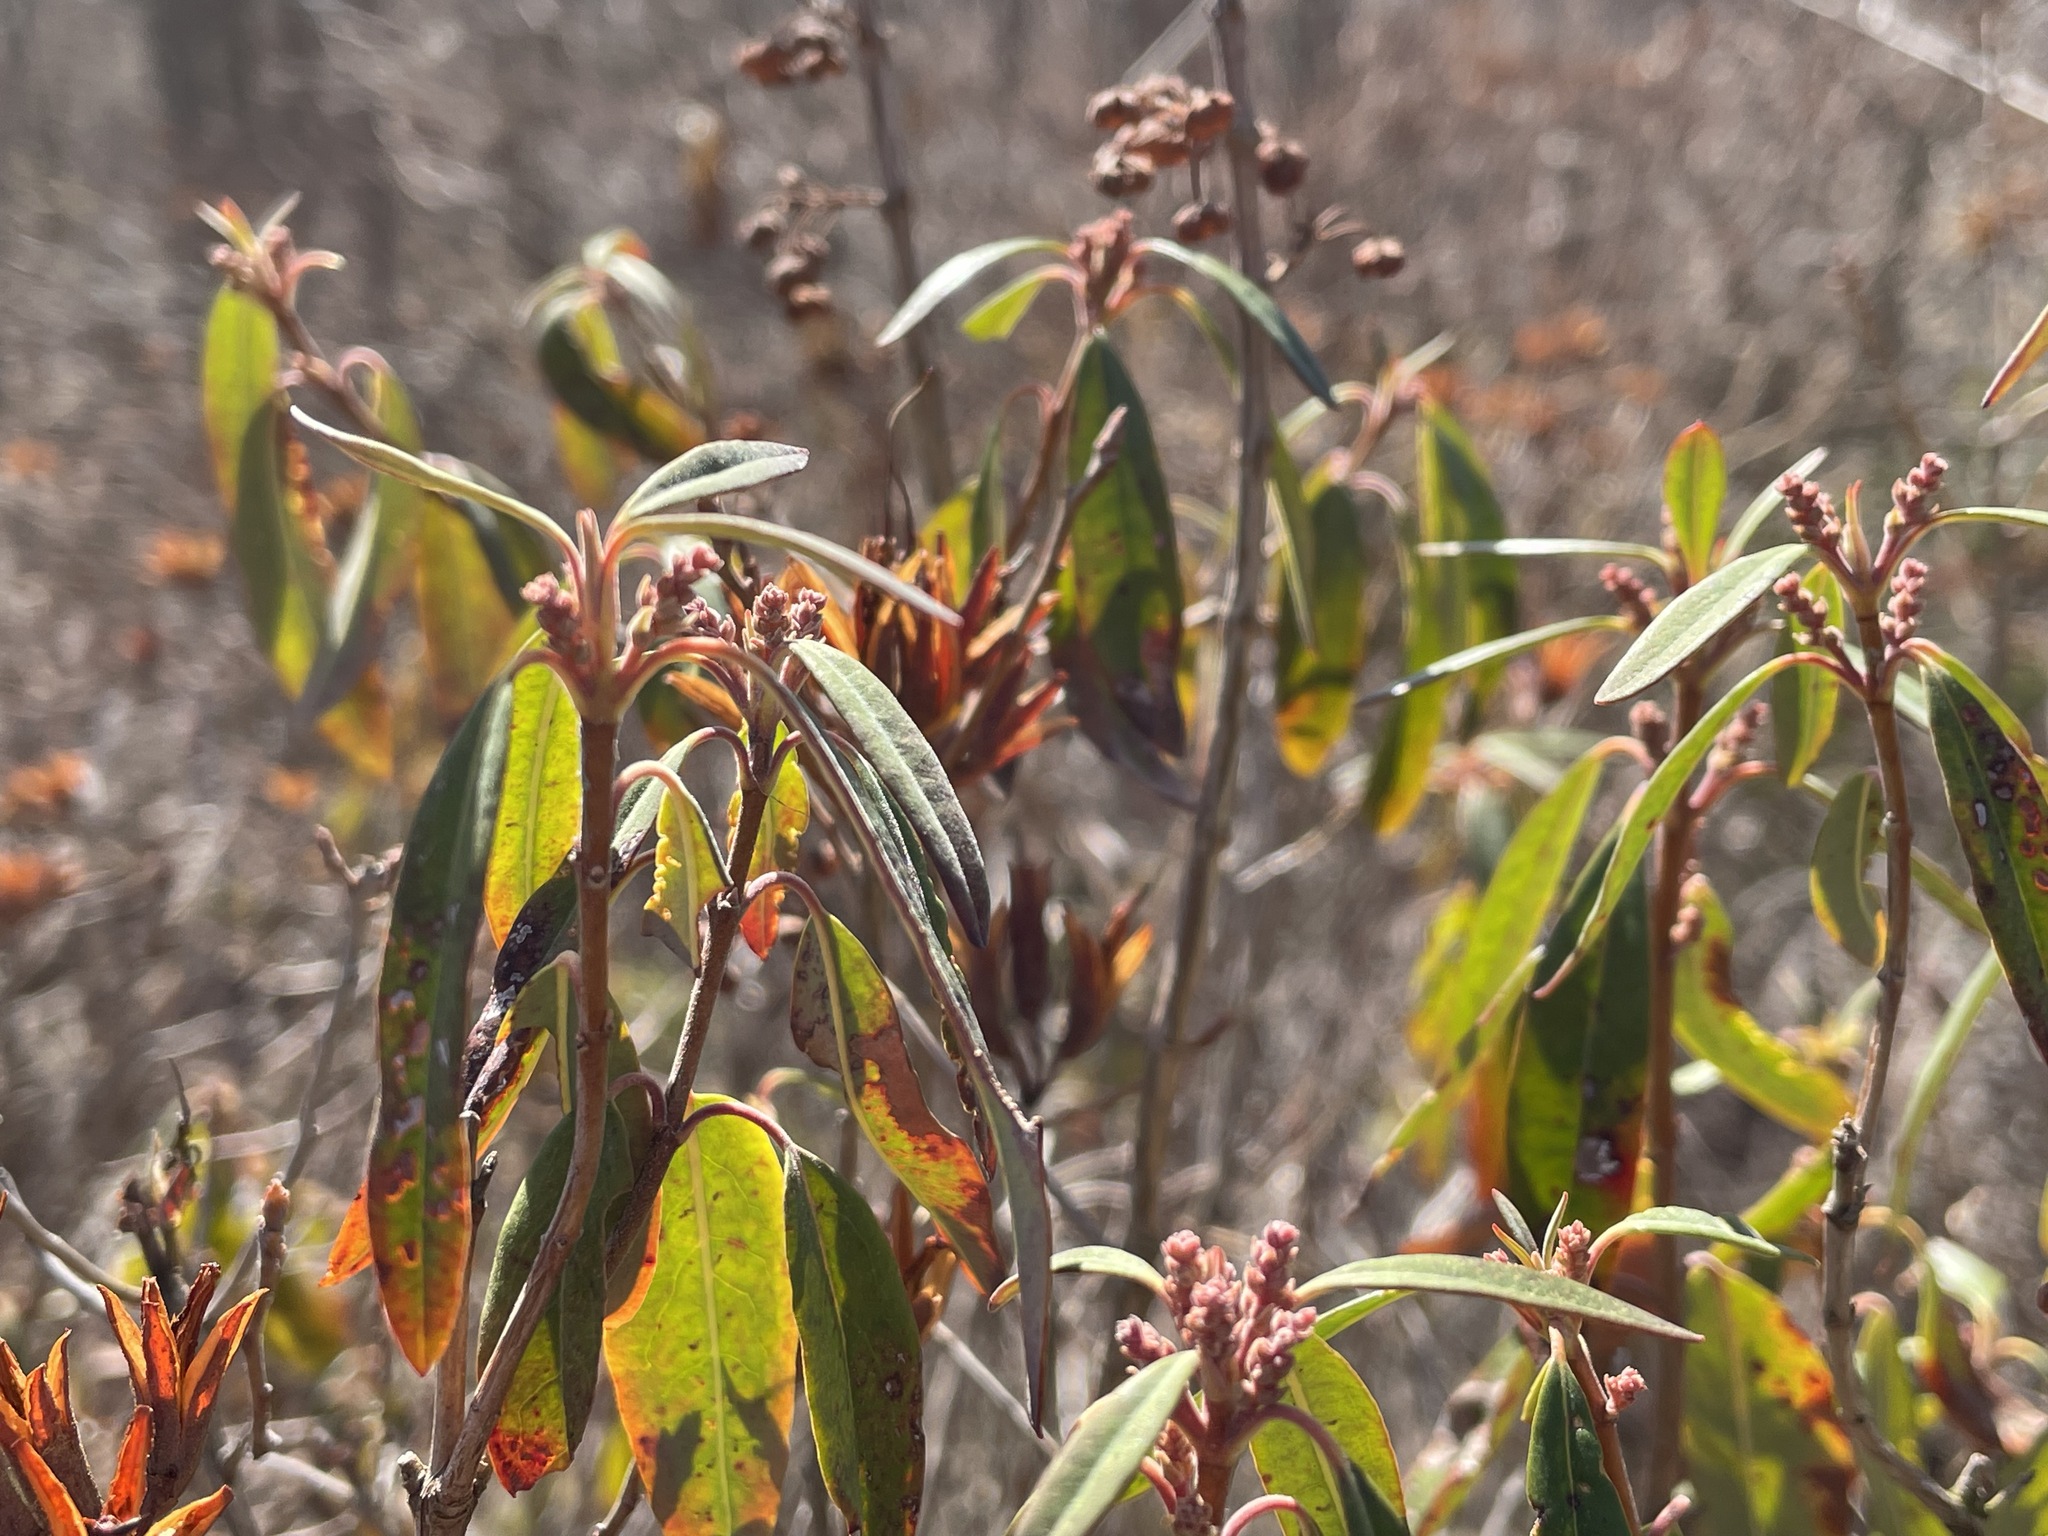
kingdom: Plantae
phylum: Tracheophyta
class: Magnoliopsida
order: Ericales
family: Ericaceae
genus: Kalmia
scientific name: Kalmia angustifolia
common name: Sheep-laurel
